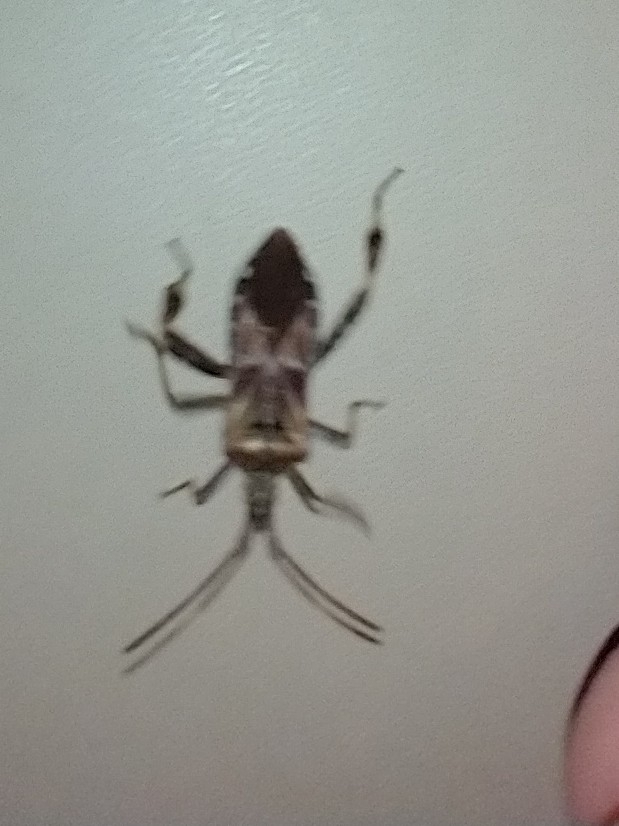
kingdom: Animalia
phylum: Arthropoda
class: Insecta
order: Hemiptera
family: Coreidae
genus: Leptoglossus
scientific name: Leptoglossus occidentalis
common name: Western conifer-seed bug
